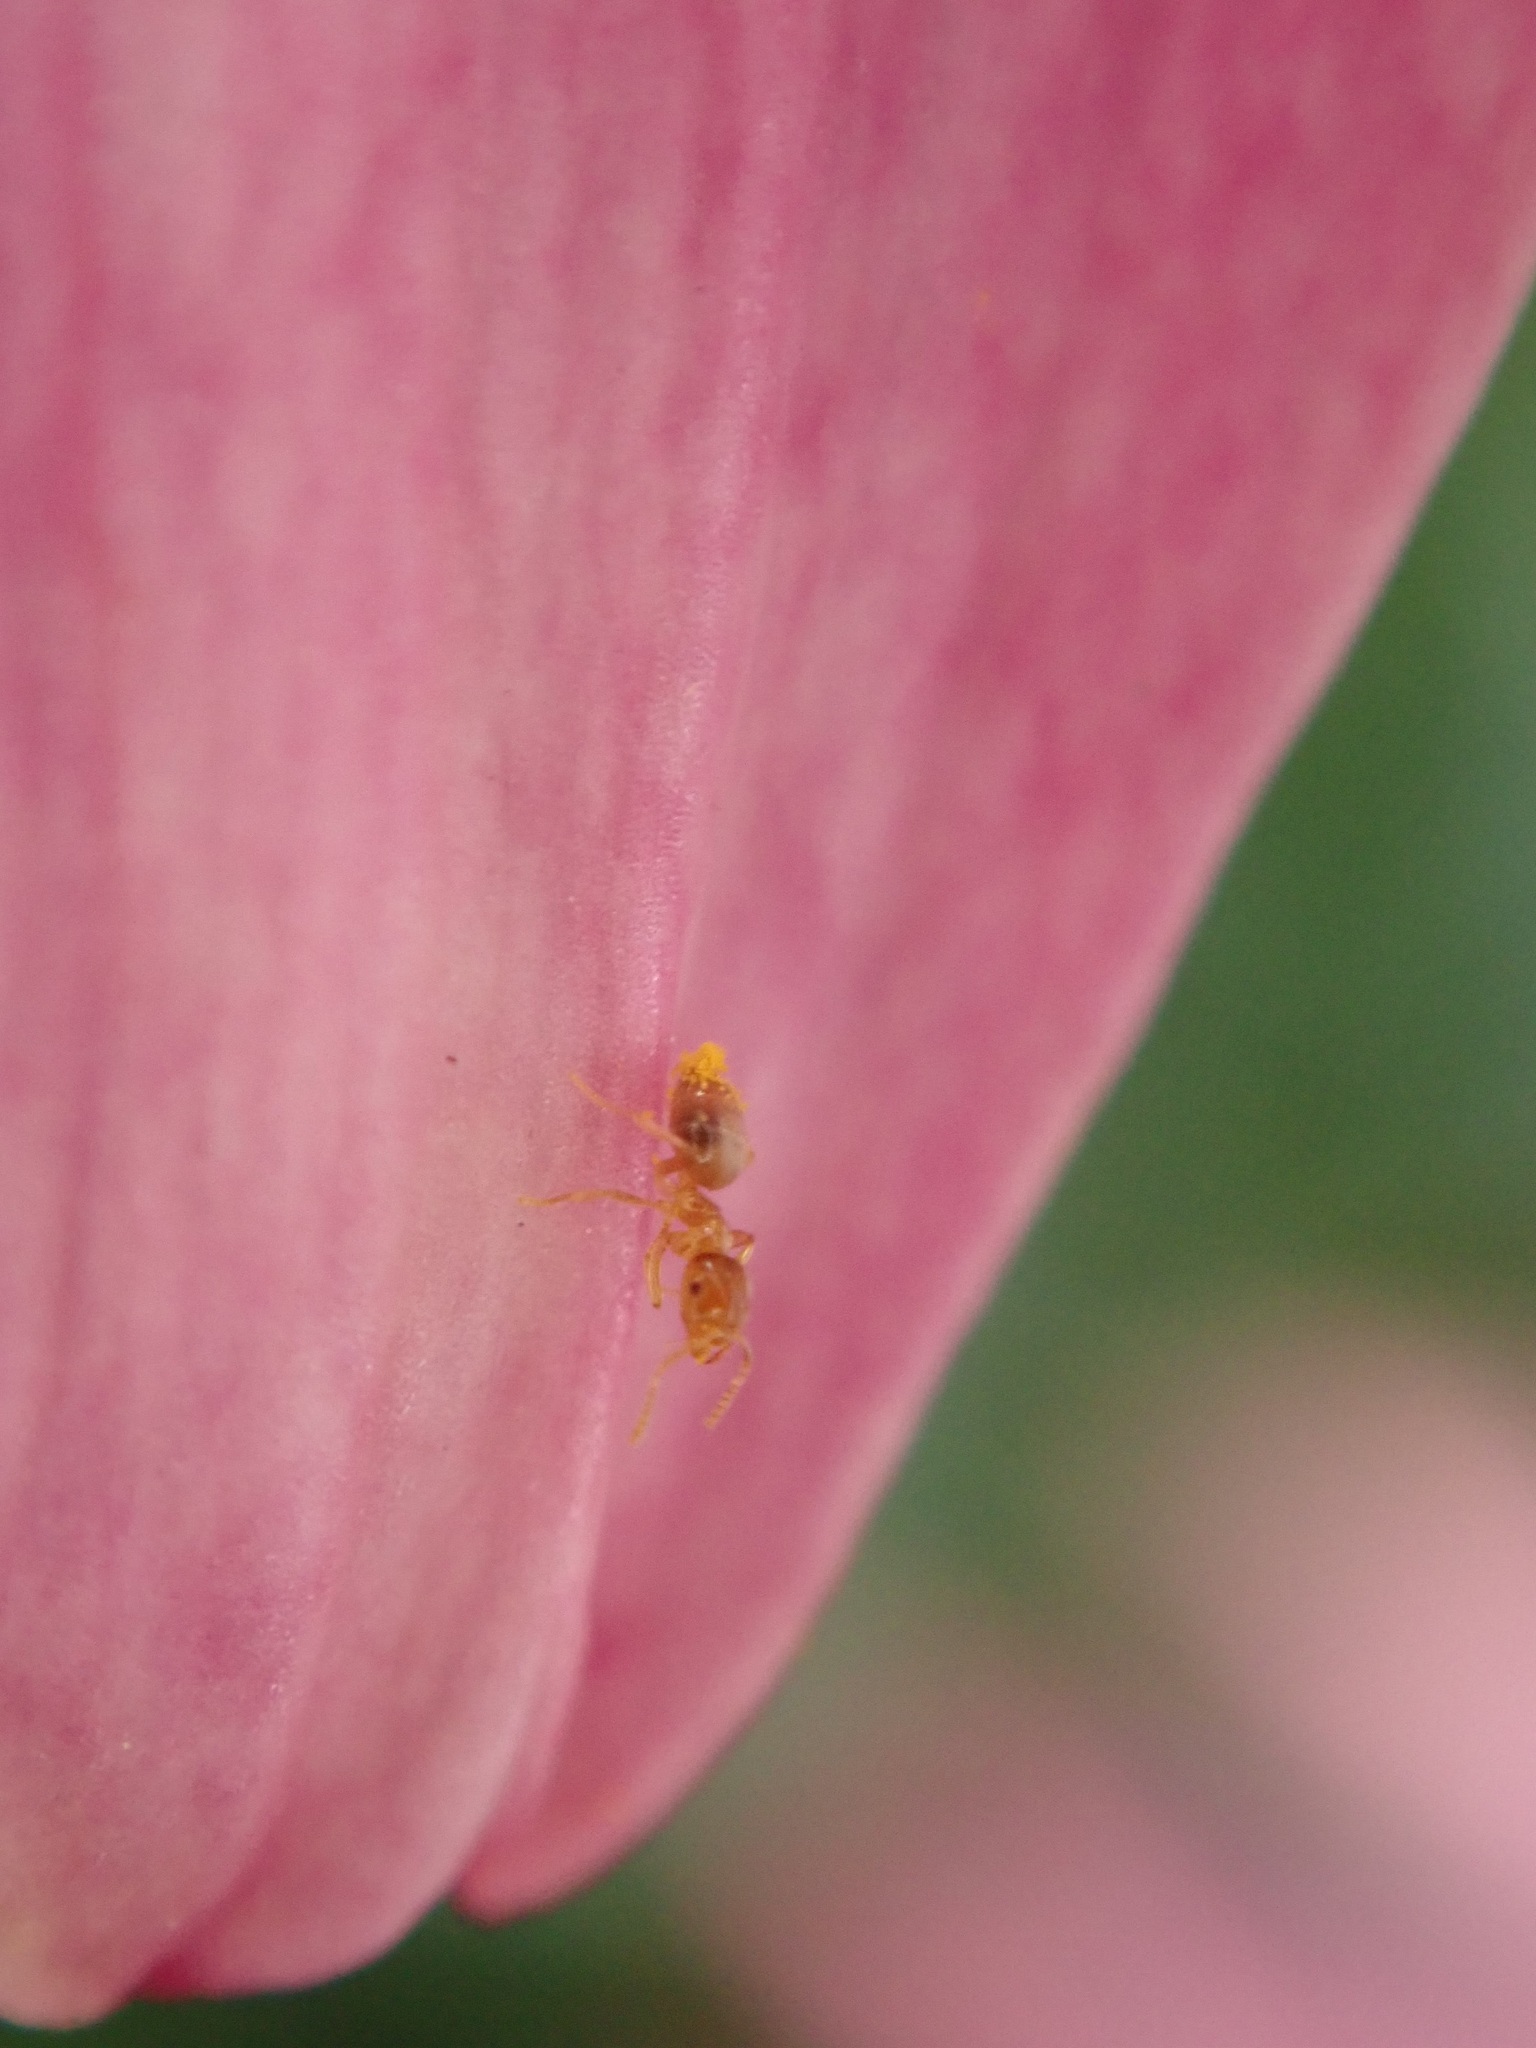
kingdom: Animalia
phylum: Arthropoda
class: Insecta
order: Hymenoptera
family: Formicidae
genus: Brachymyrmex
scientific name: Brachymyrmex depilis
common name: Hairless rover ant
